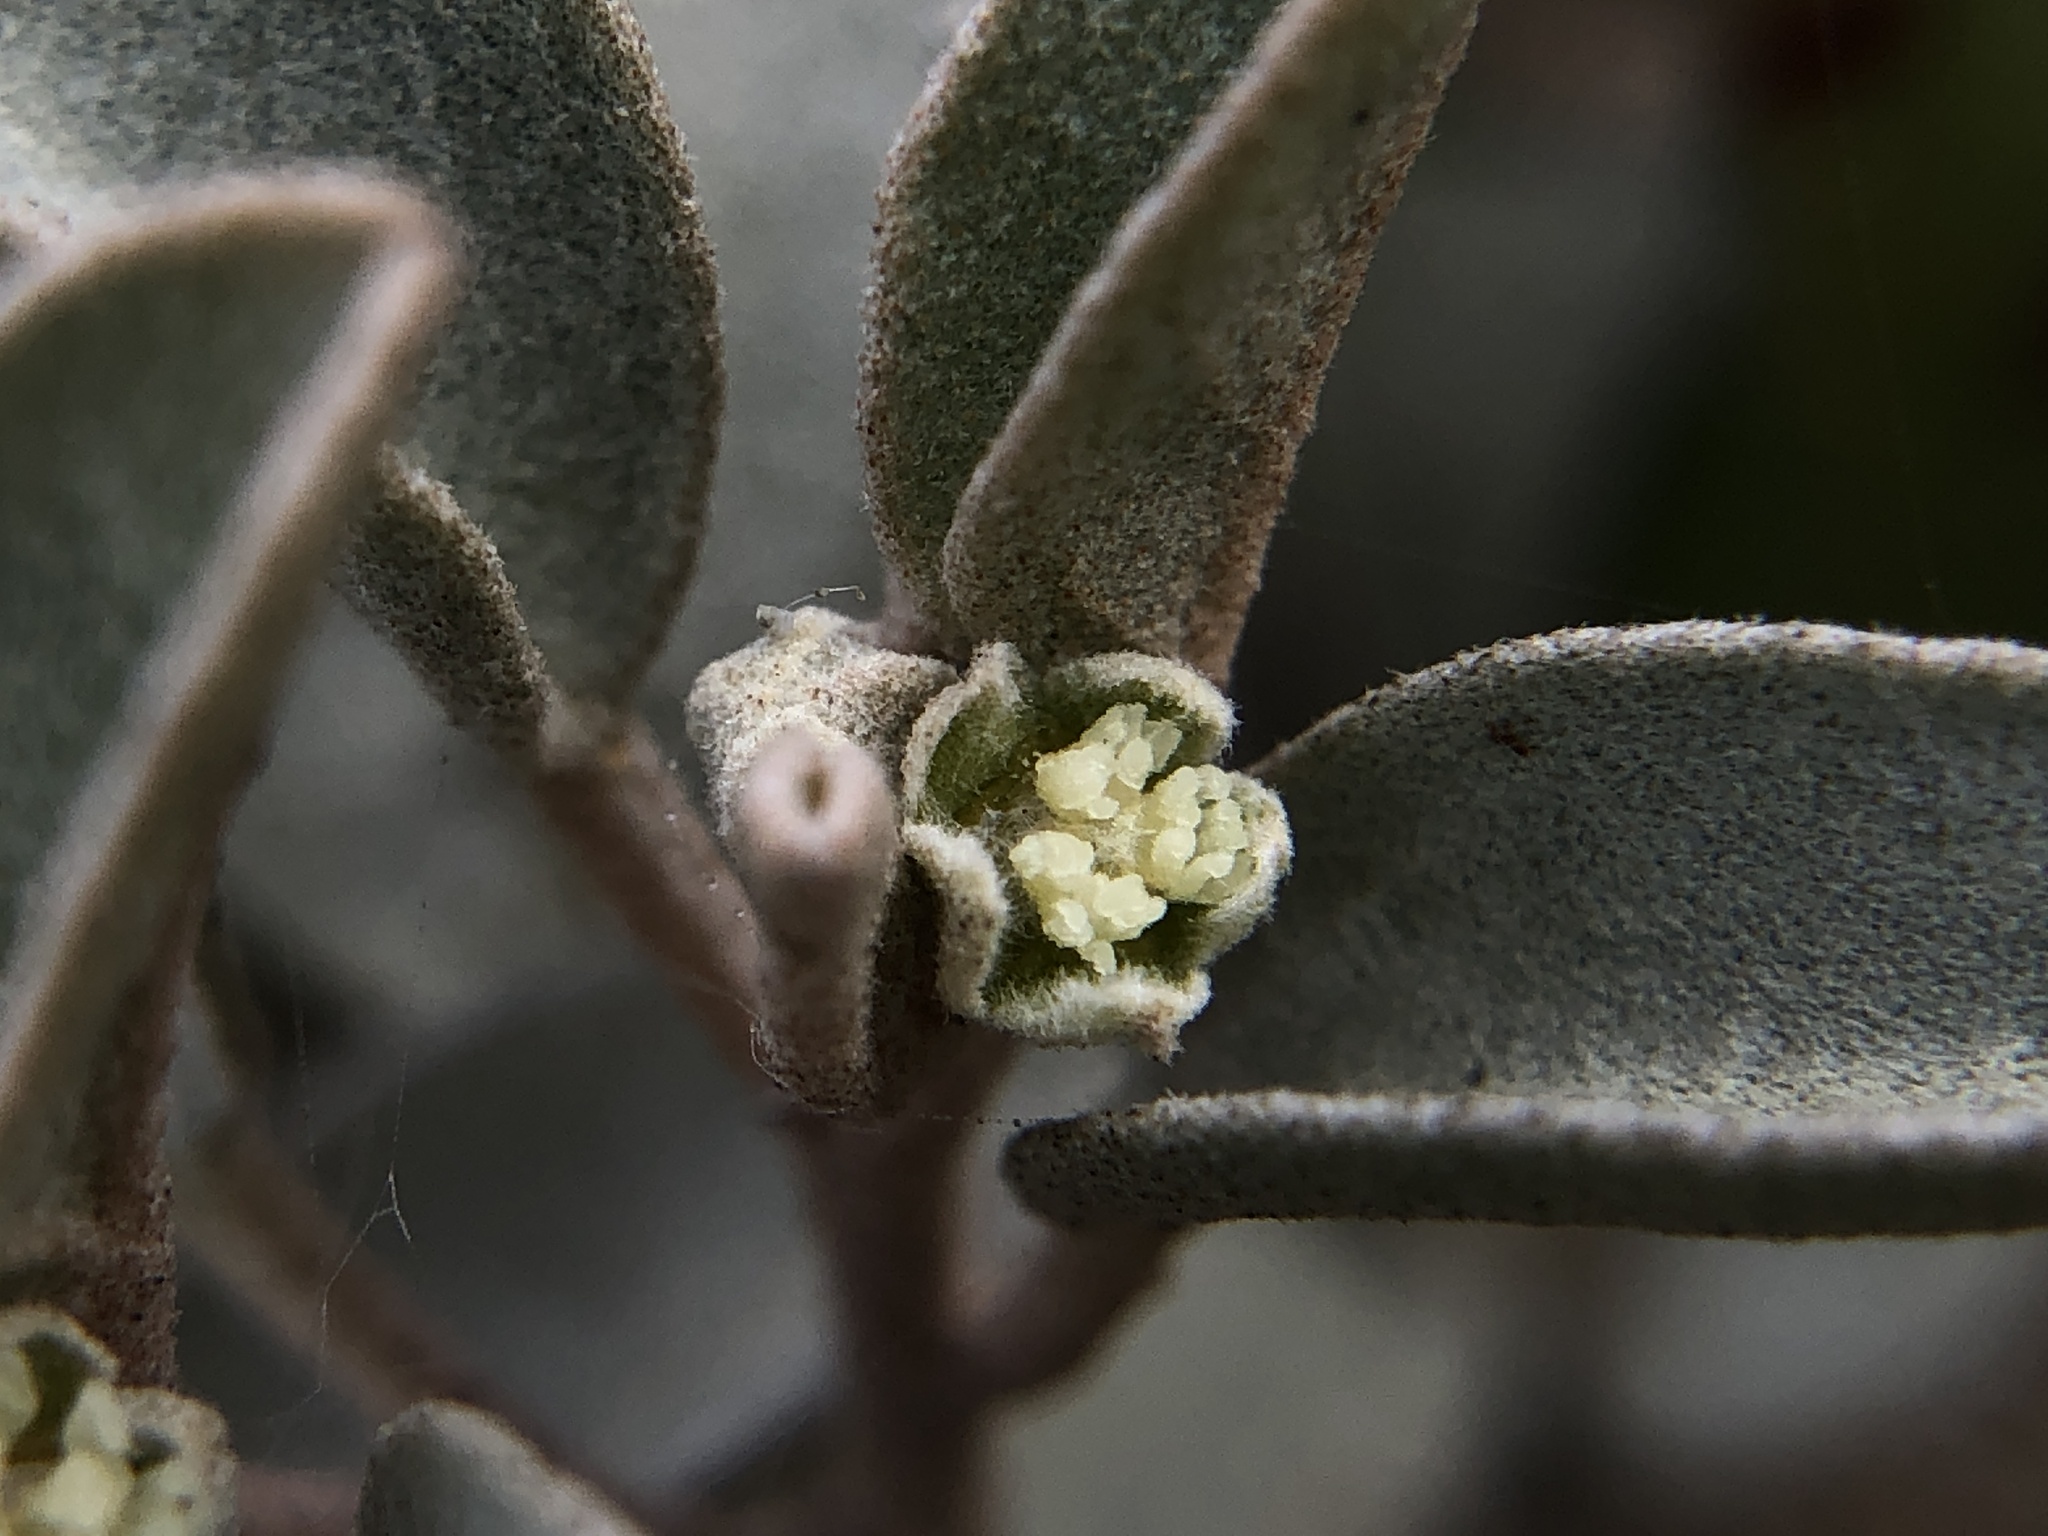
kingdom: Plantae
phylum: Tracheophyta
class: Magnoliopsida
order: Malpighiales
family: Euphorbiaceae
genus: Croton
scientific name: Croton californicus
